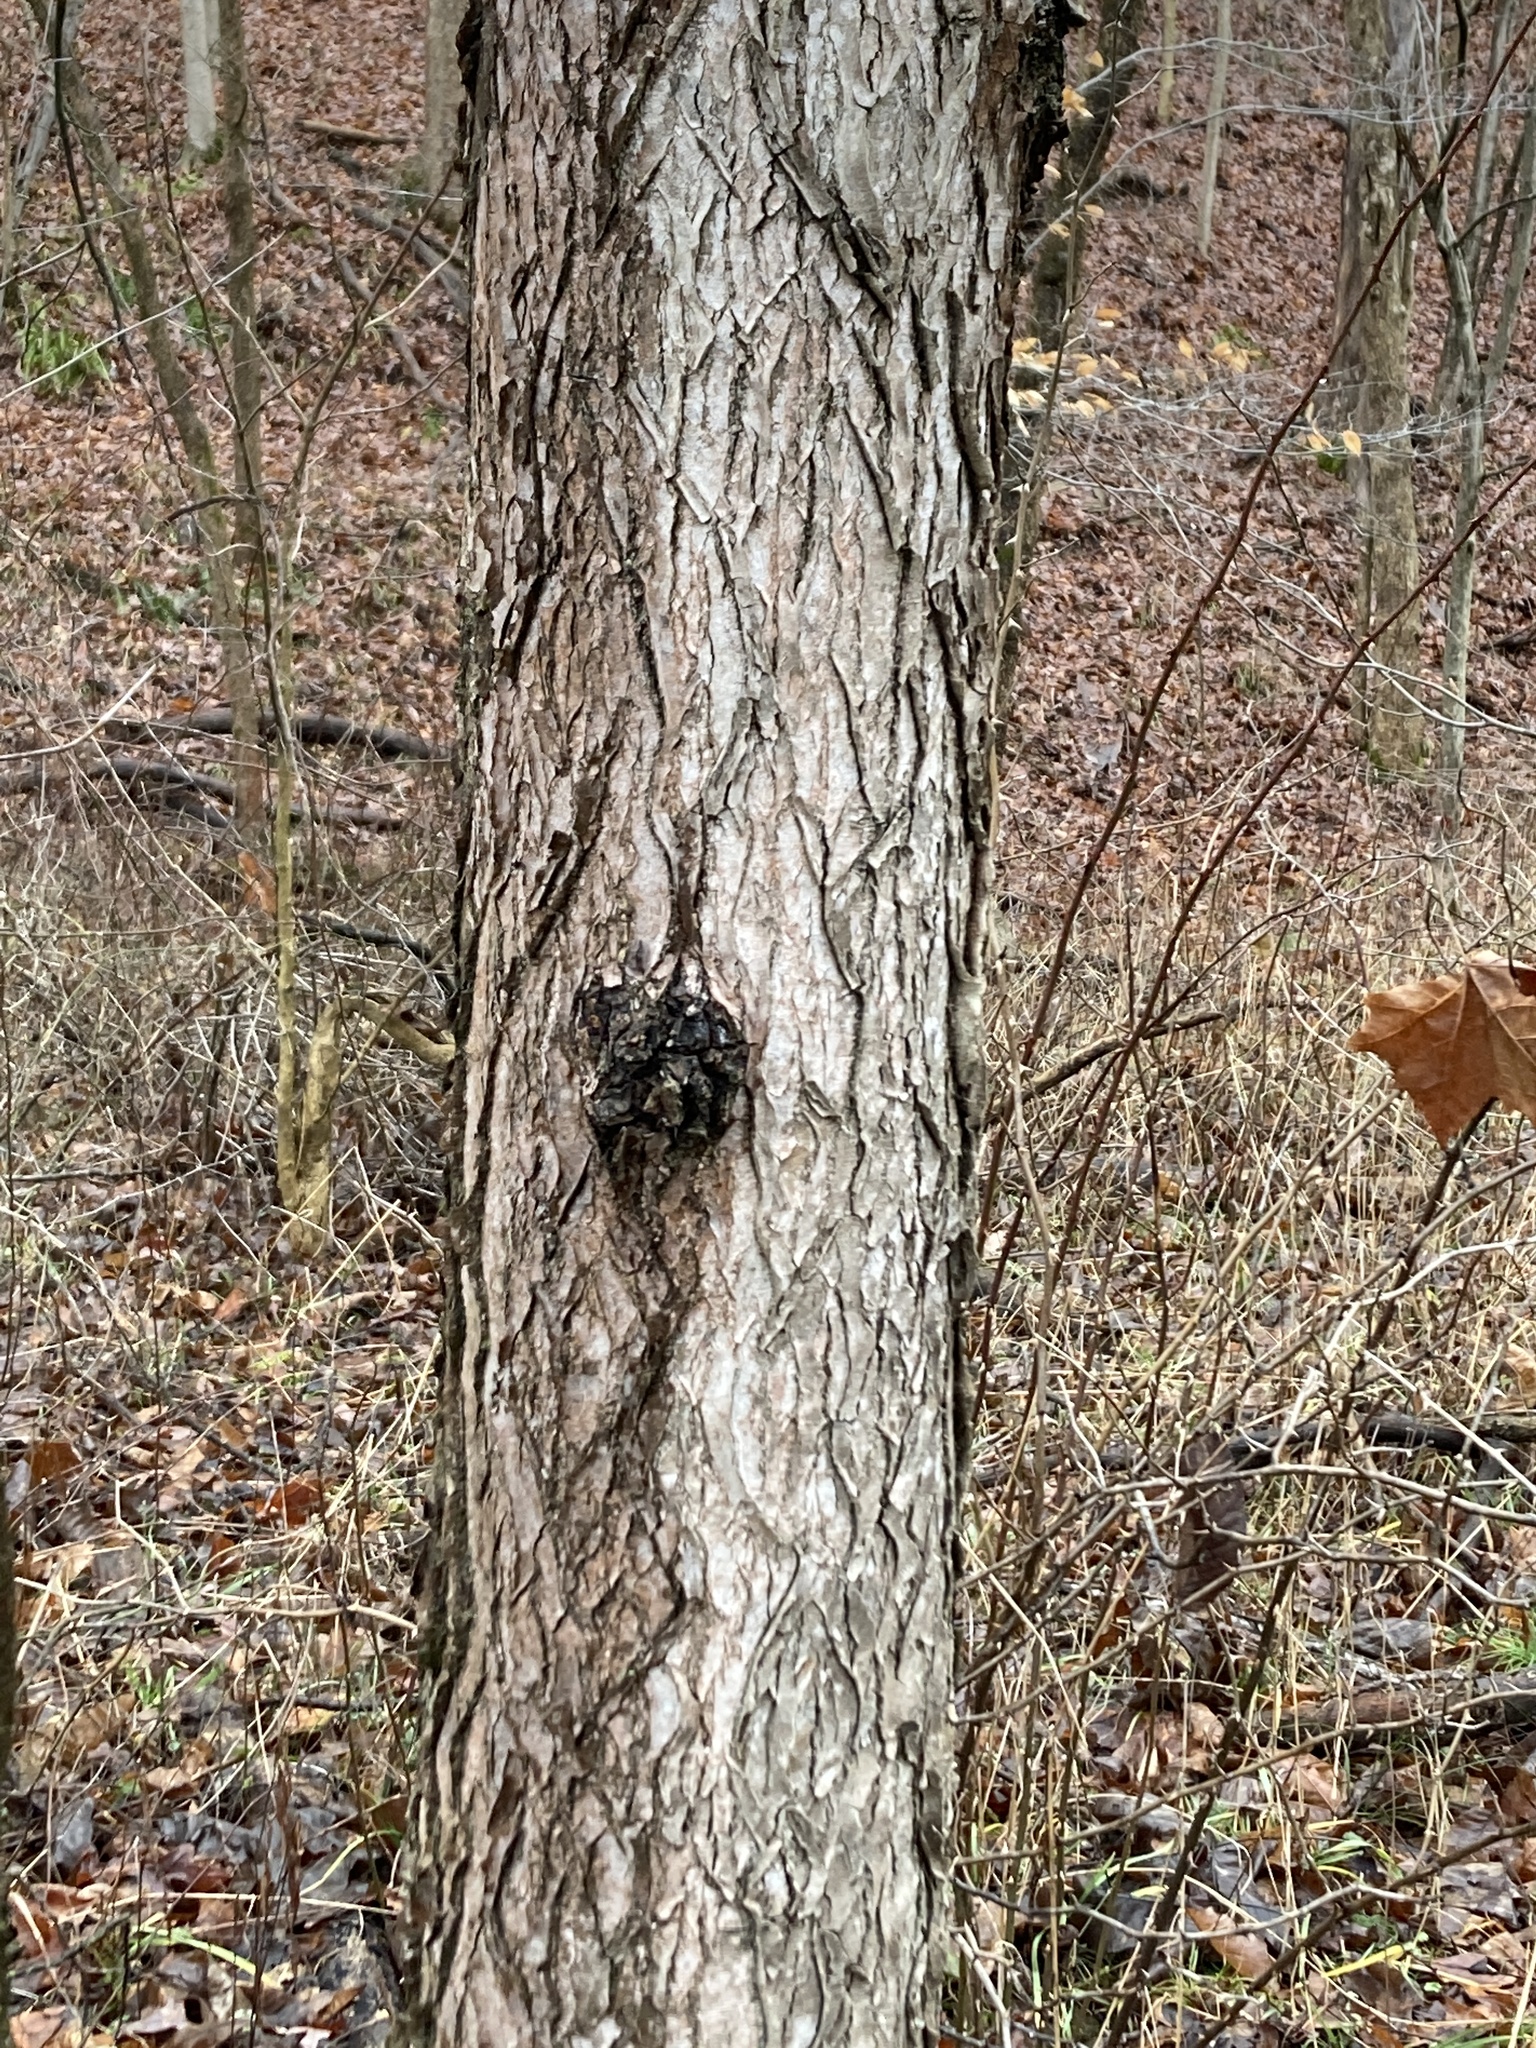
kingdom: Plantae
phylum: Tracheophyta
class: Magnoliopsida
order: Fabales
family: Fabaceae
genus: Gymnocladus
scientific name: Gymnocladus dioicus
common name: Kentucky coffee-tree
